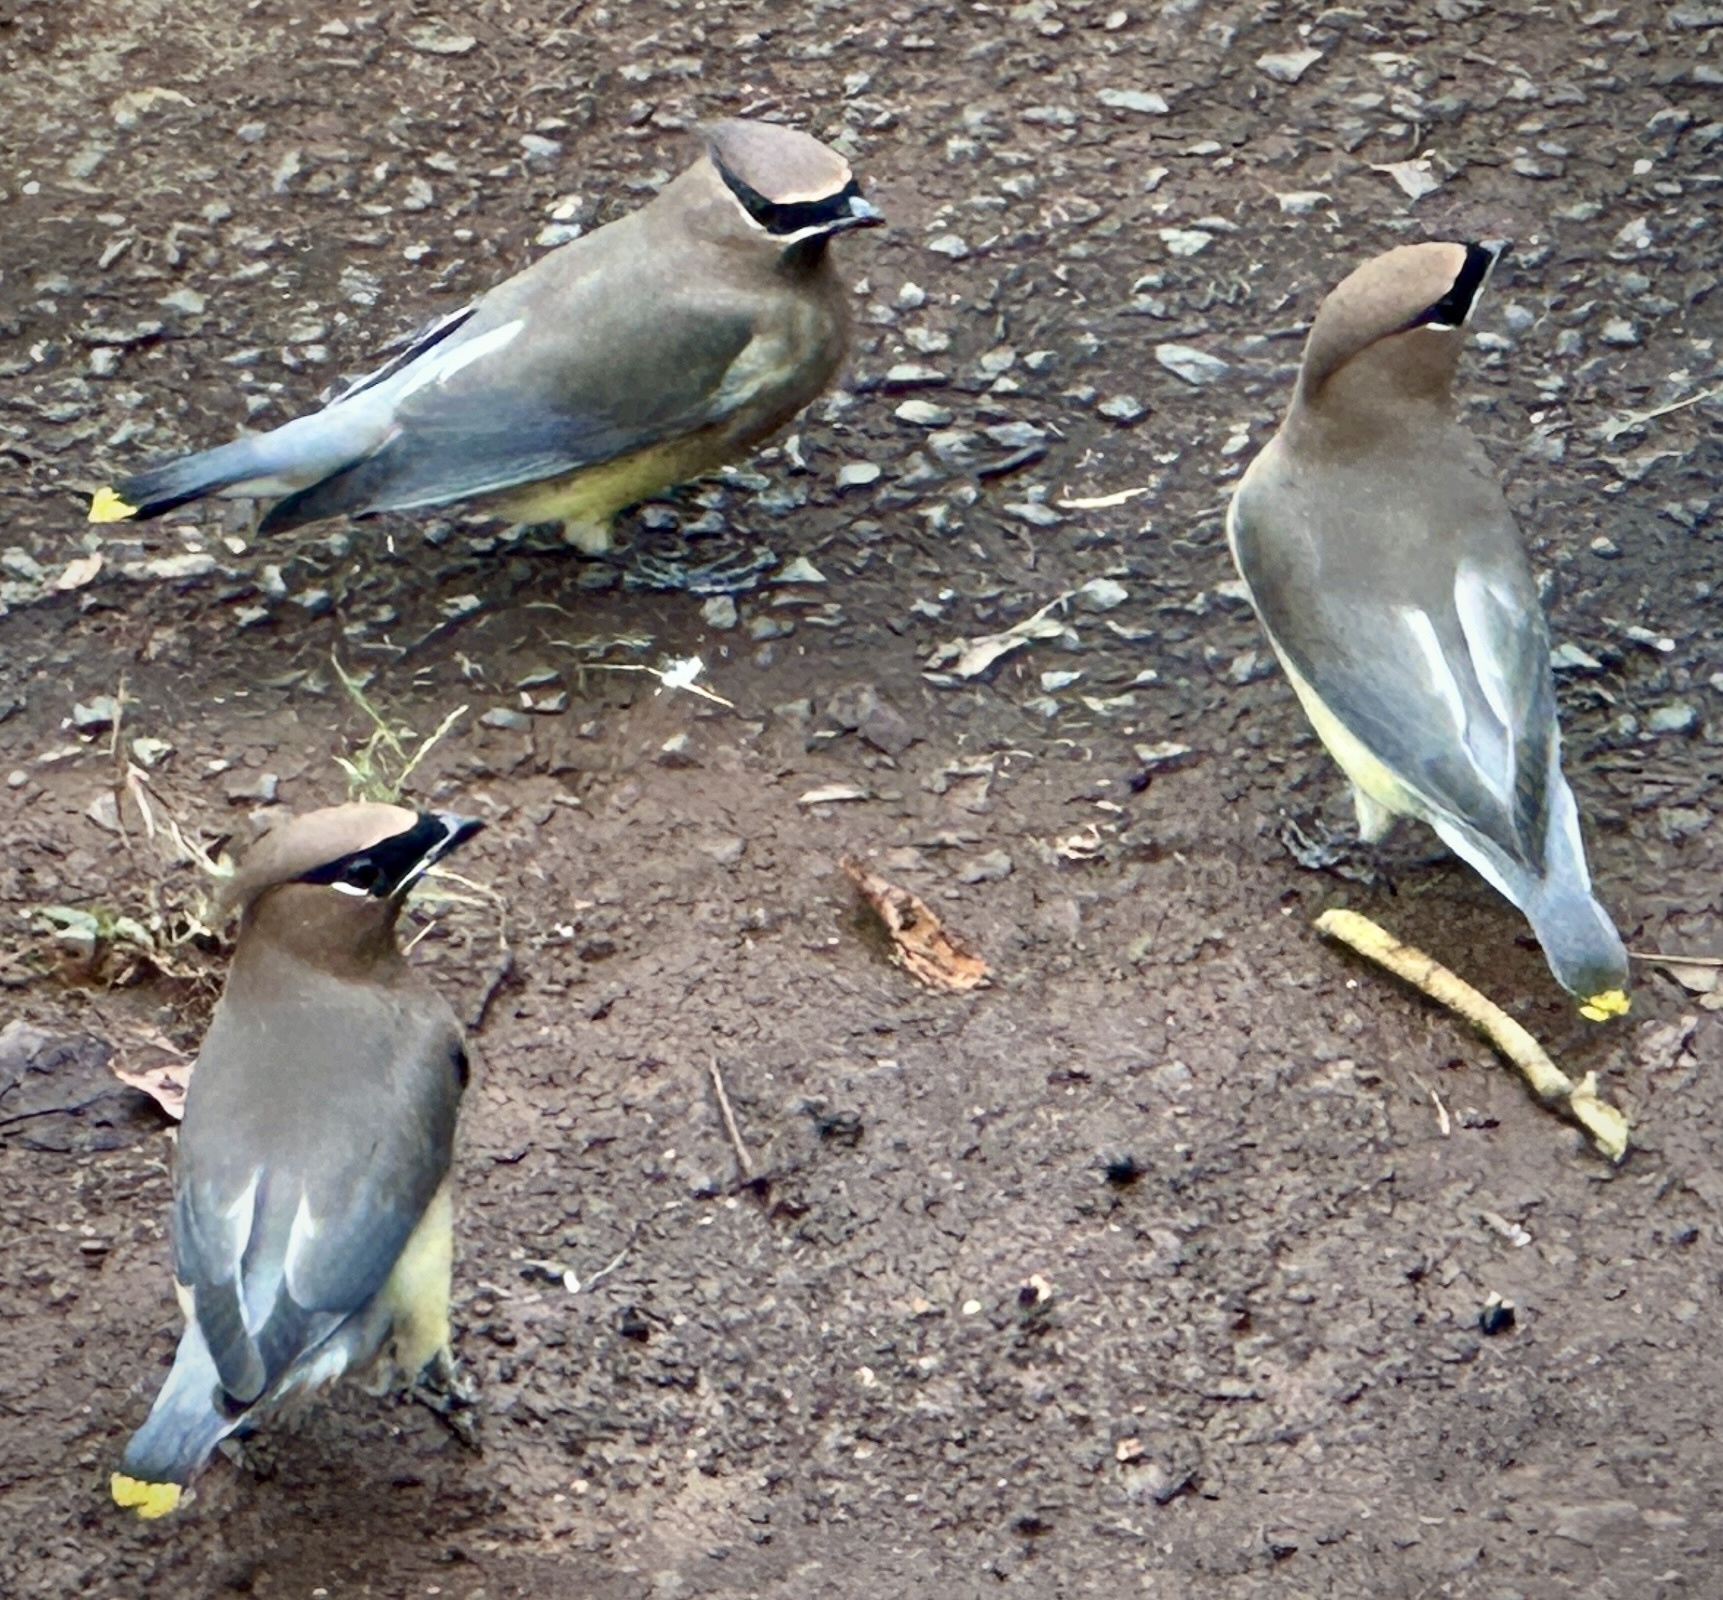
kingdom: Animalia
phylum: Chordata
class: Aves
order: Passeriformes
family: Bombycillidae
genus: Bombycilla
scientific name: Bombycilla cedrorum
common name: Cedar waxwing
